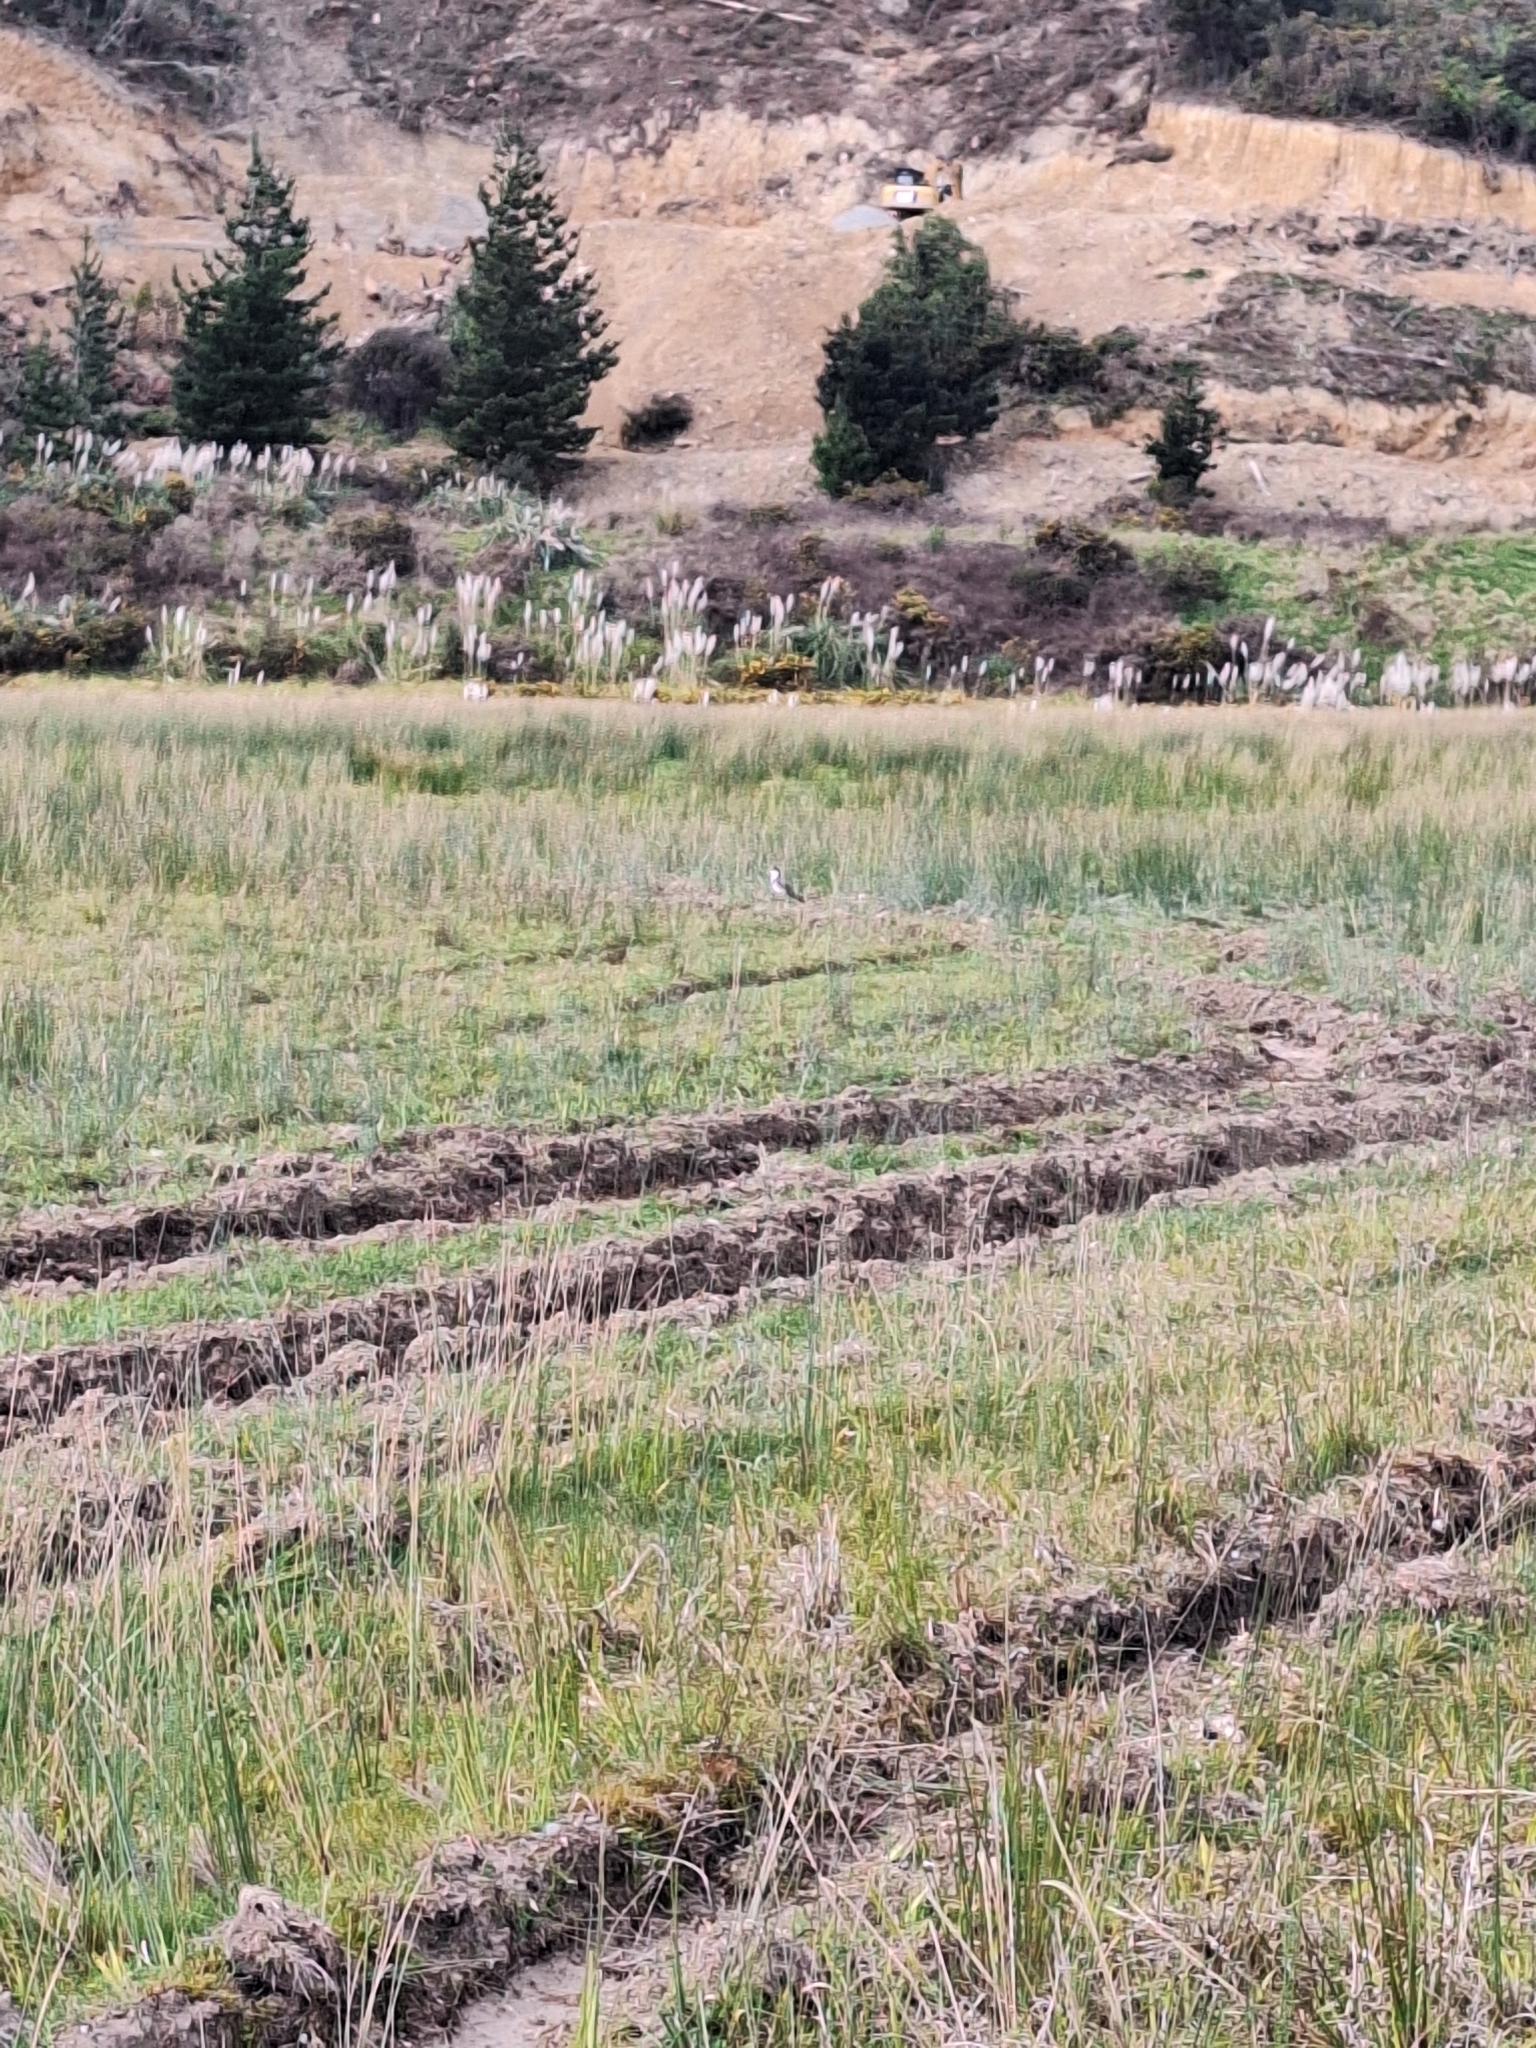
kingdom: Animalia
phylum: Chordata
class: Aves
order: Charadriiformes
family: Charadriidae
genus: Vanellus
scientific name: Vanellus miles
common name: Masked lapwing
